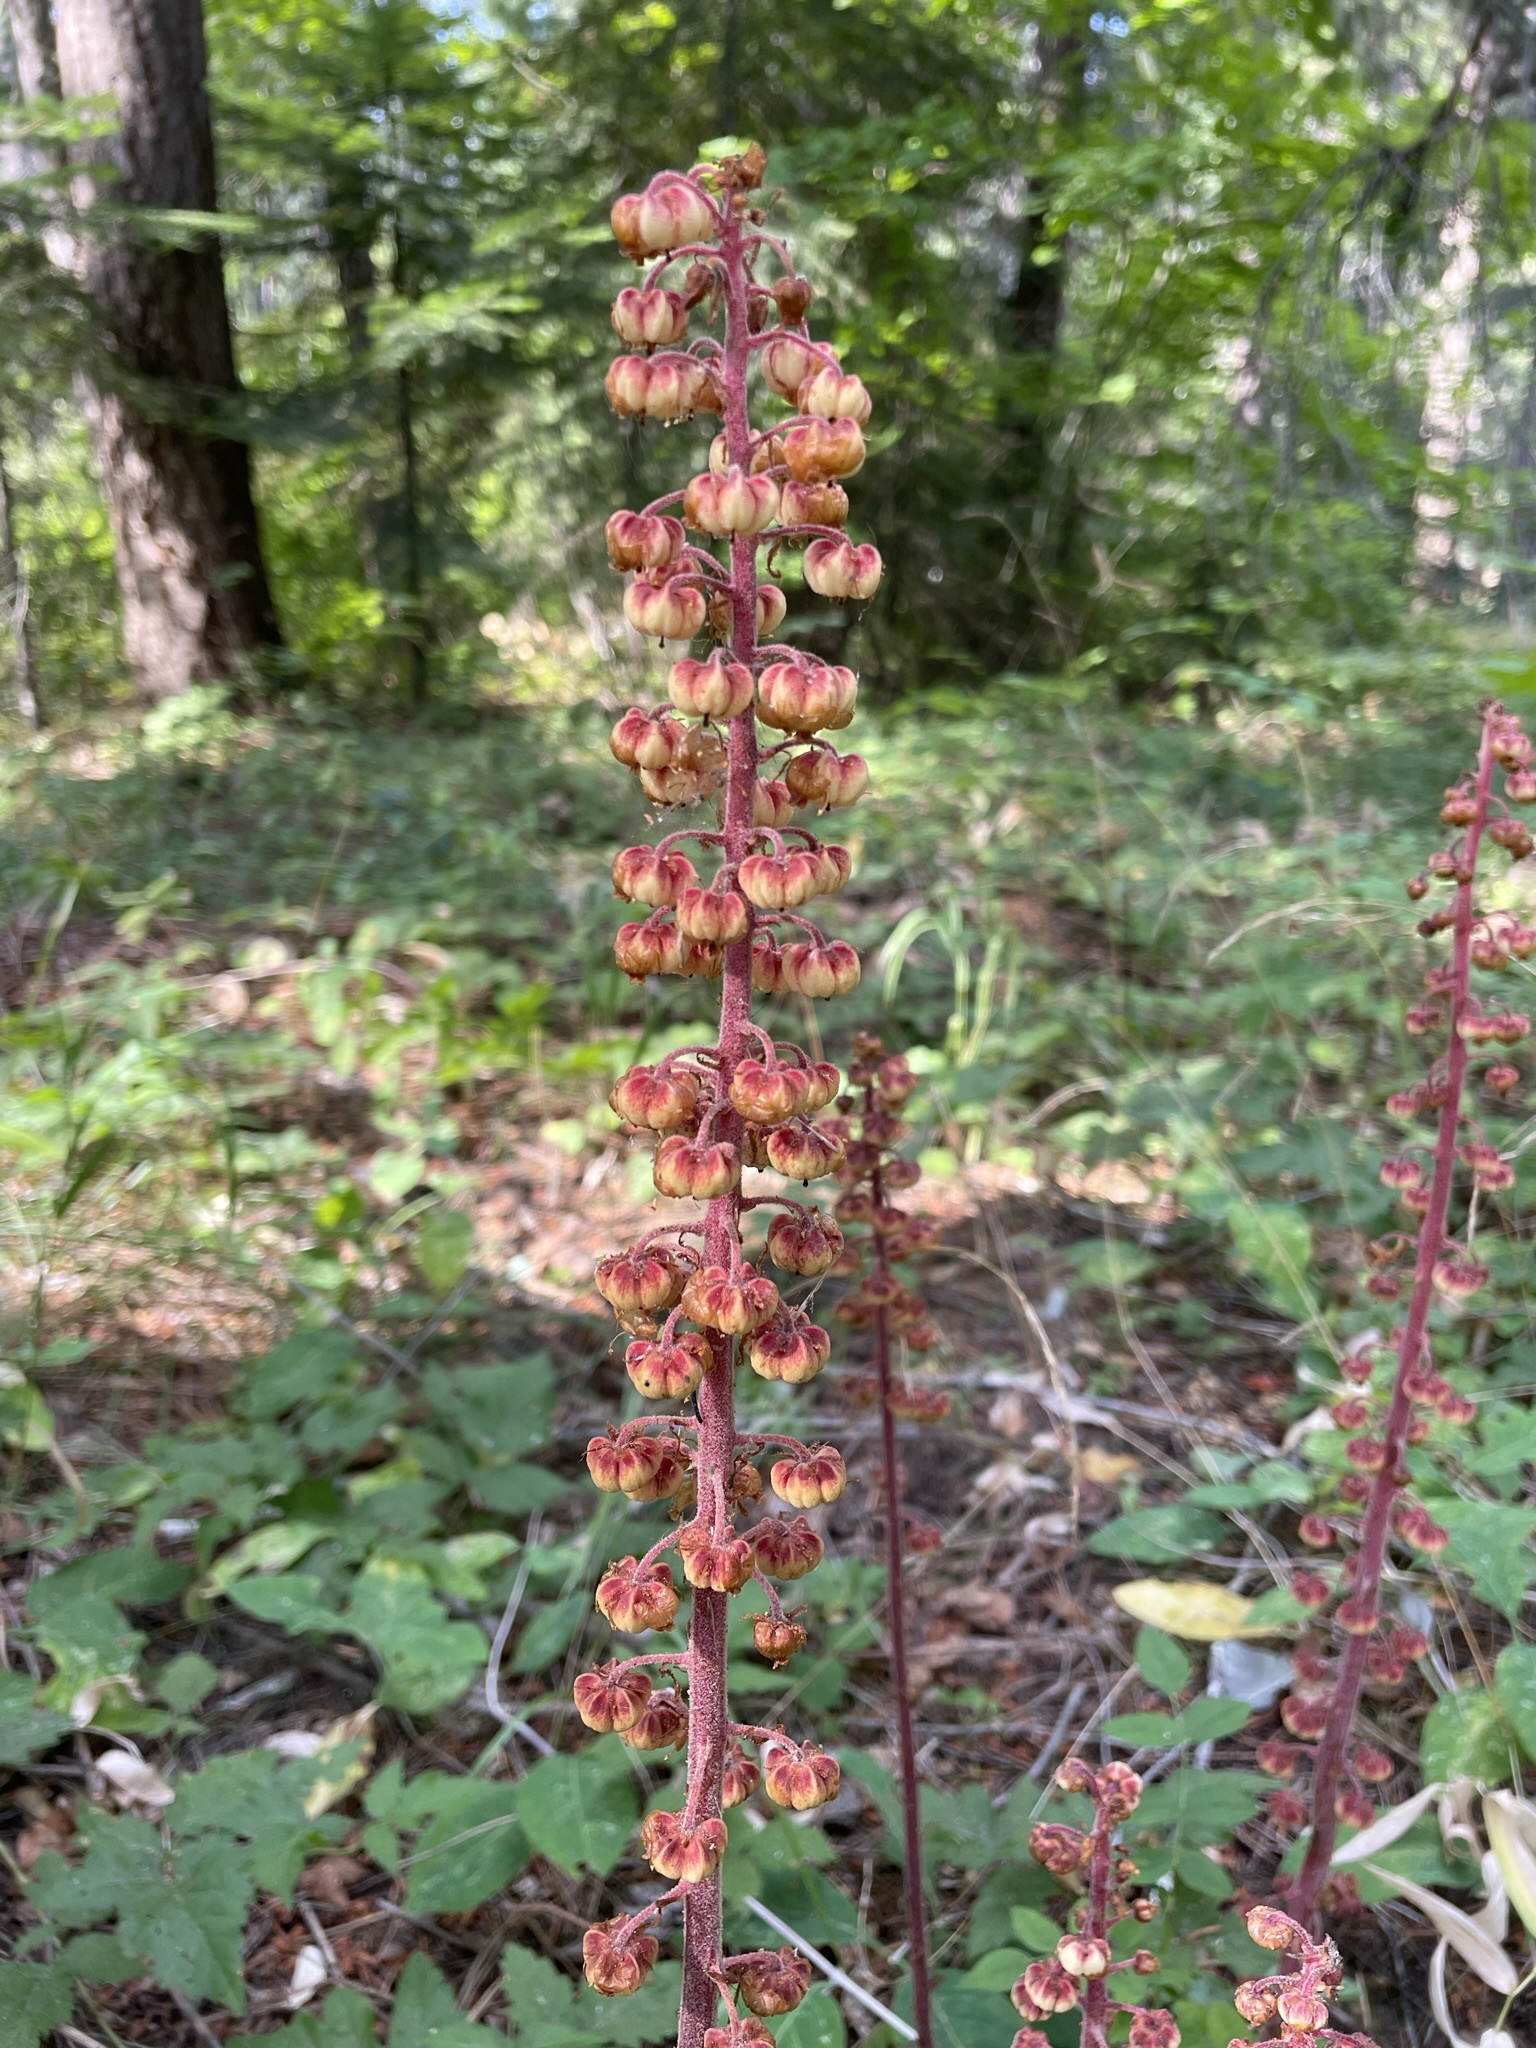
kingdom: Plantae
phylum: Tracheophyta
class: Magnoliopsida
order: Ericales
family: Ericaceae
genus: Pterospora
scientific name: Pterospora andromedea
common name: Giant bird's-nest
